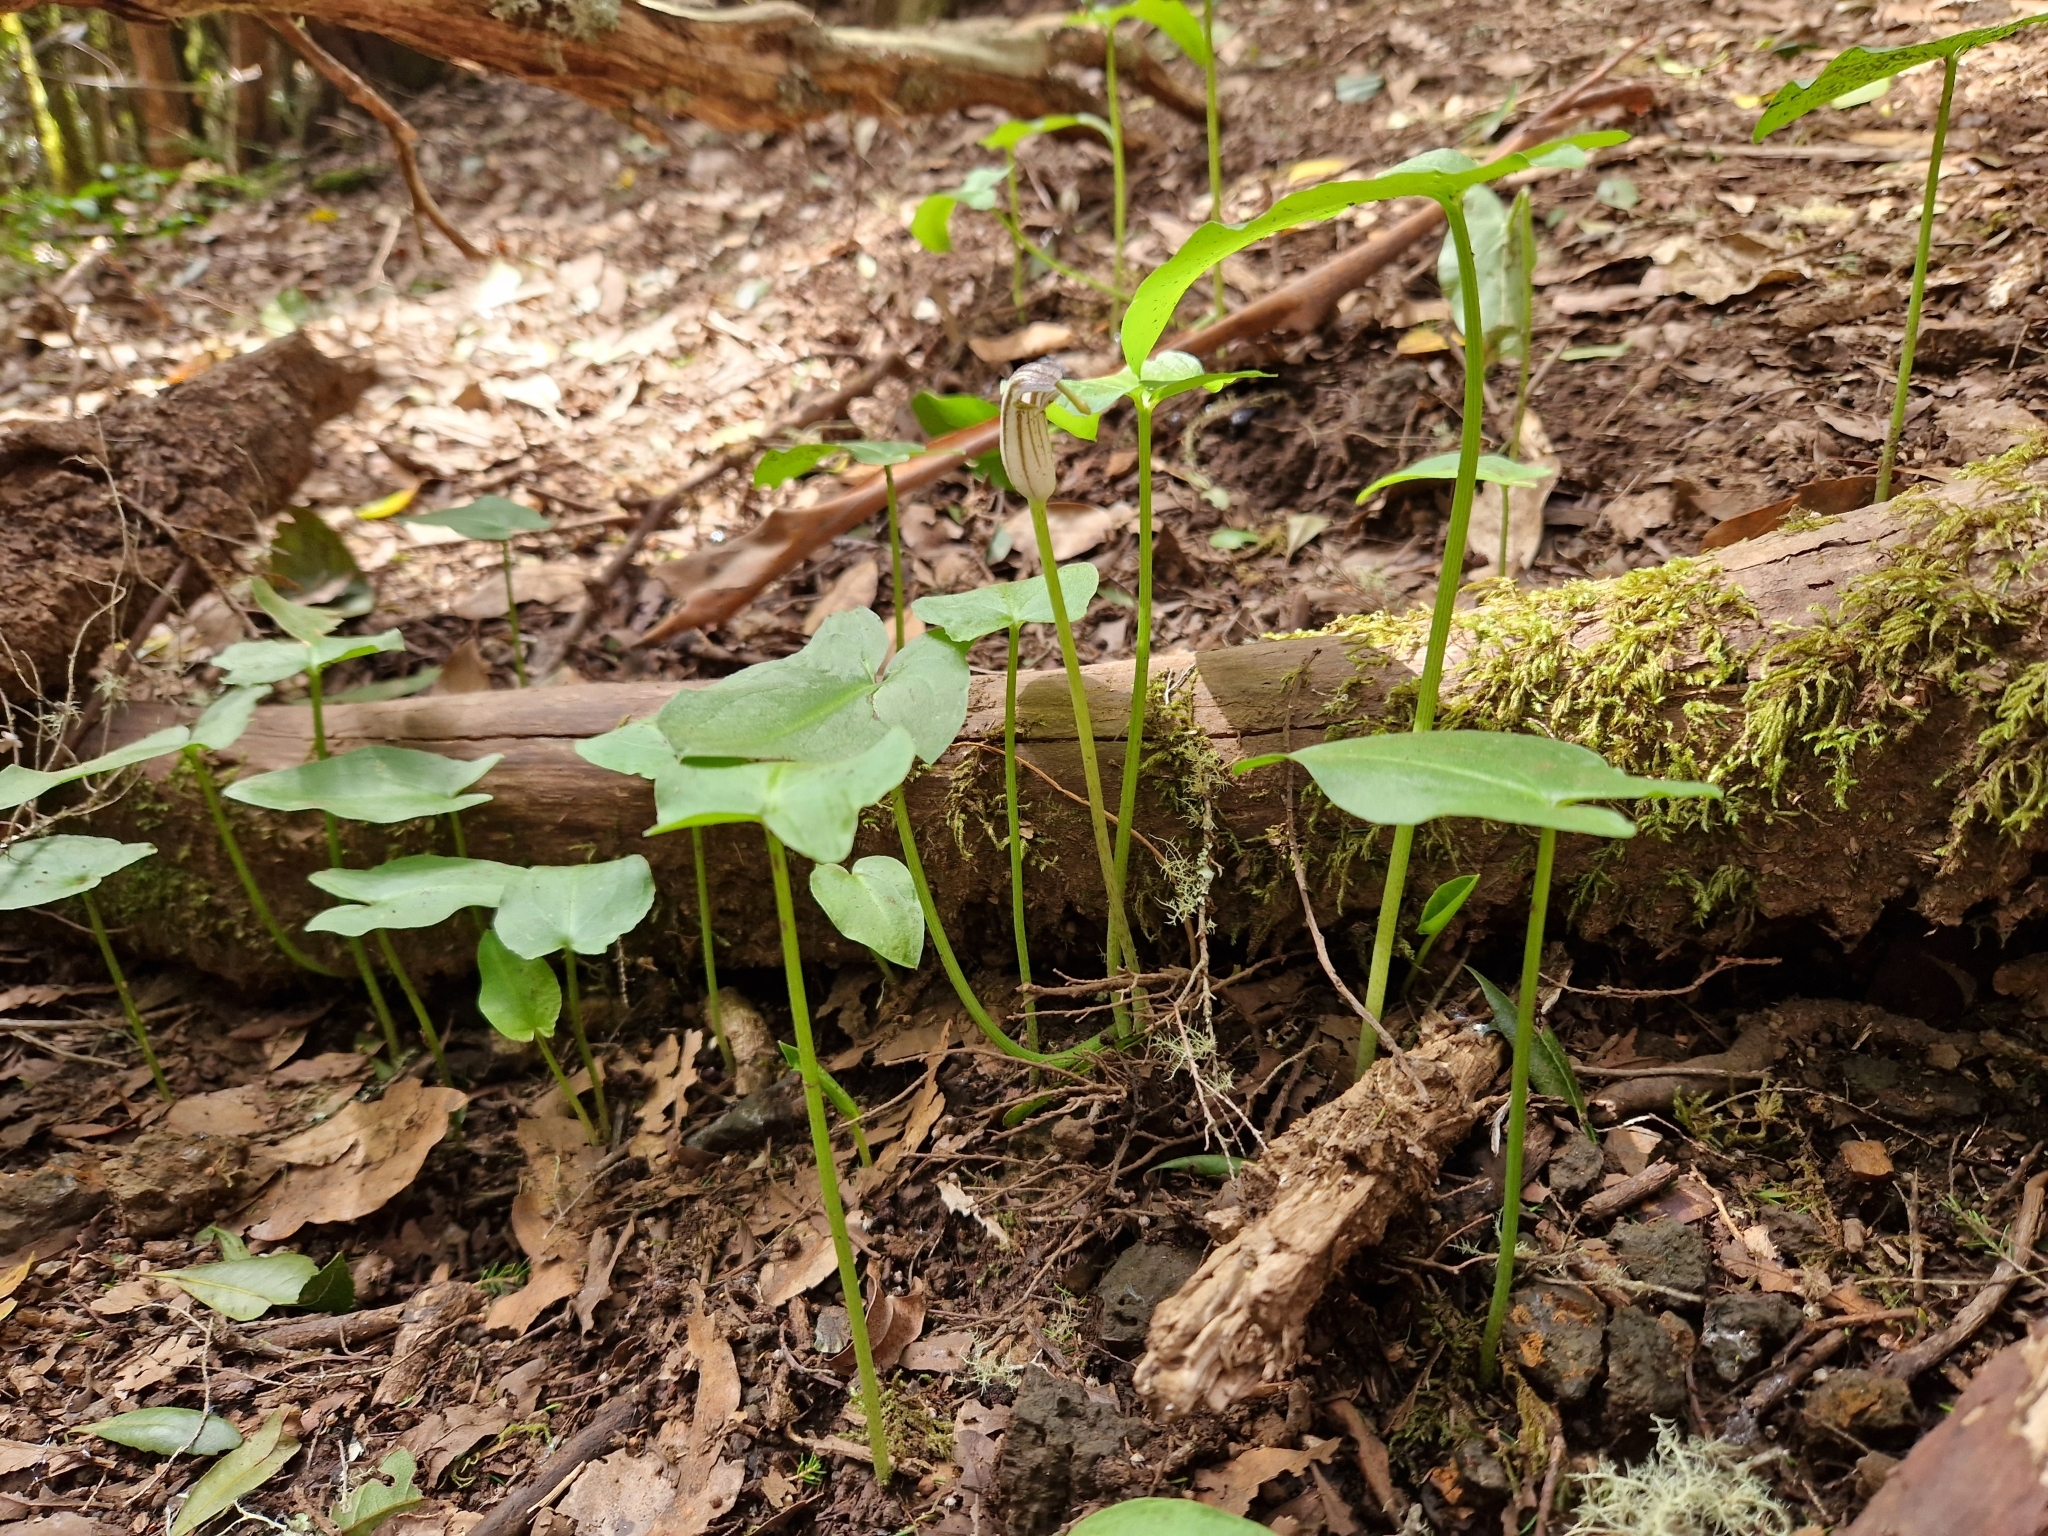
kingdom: Plantae
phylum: Tracheophyta
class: Liliopsida
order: Alismatales
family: Araceae
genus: Arisarum
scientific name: Arisarum simorrhinum
